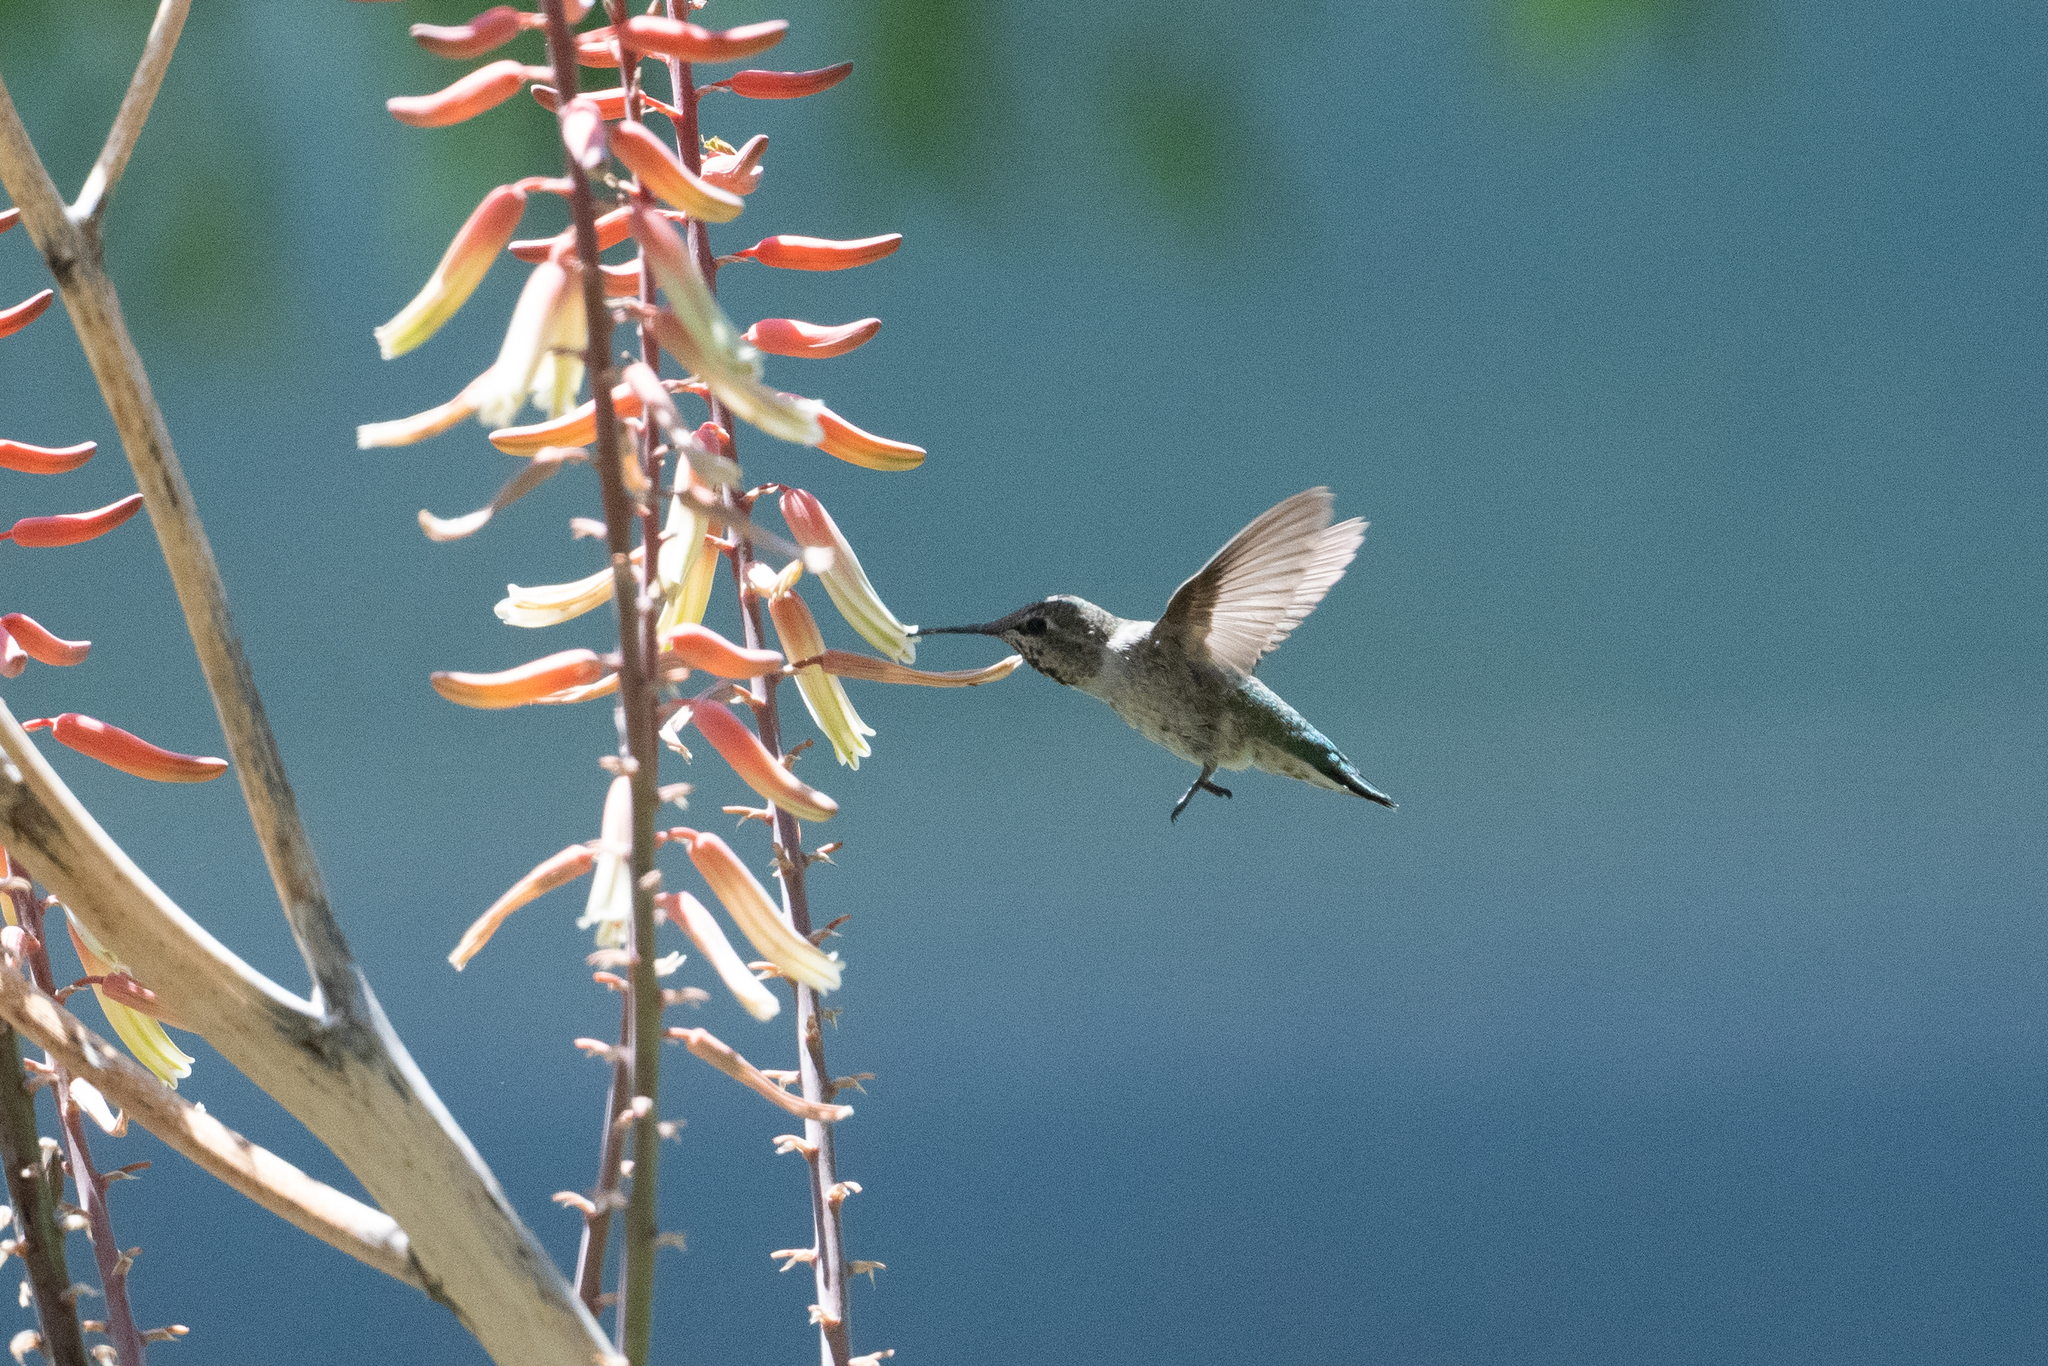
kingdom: Animalia
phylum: Chordata
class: Aves
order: Apodiformes
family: Trochilidae
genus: Calypte
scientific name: Calypte anna
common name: Anna's hummingbird
